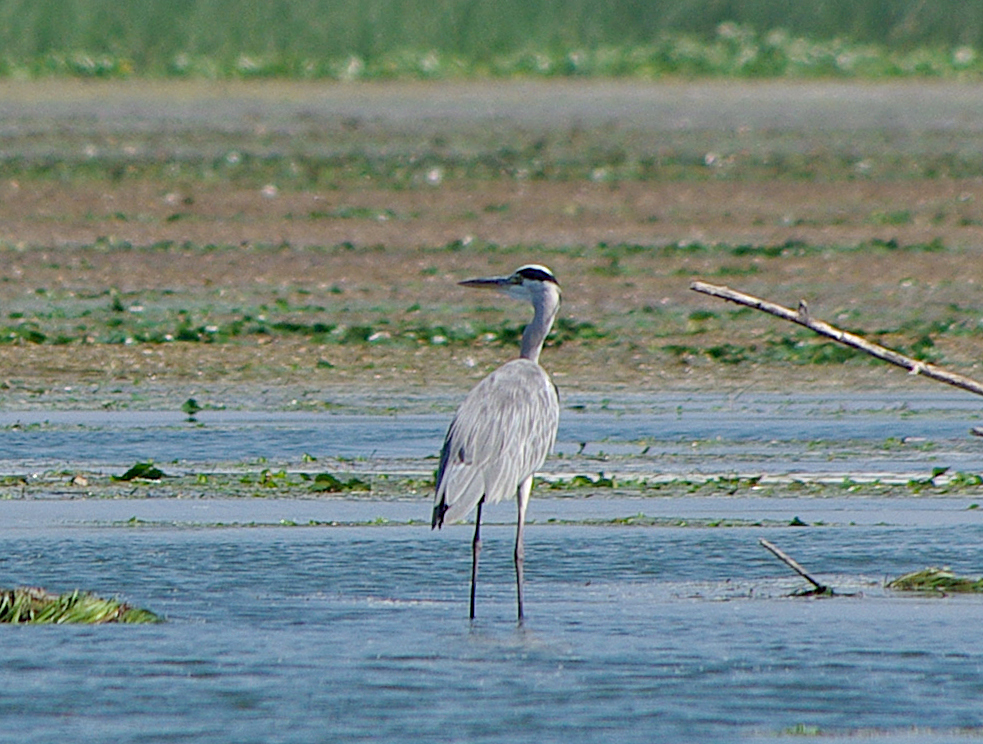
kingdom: Animalia
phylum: Chordata
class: Aves
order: Pelecaniformes
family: Ardeidae
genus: Ardea
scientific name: Ardea cinerea
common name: Grey heron
